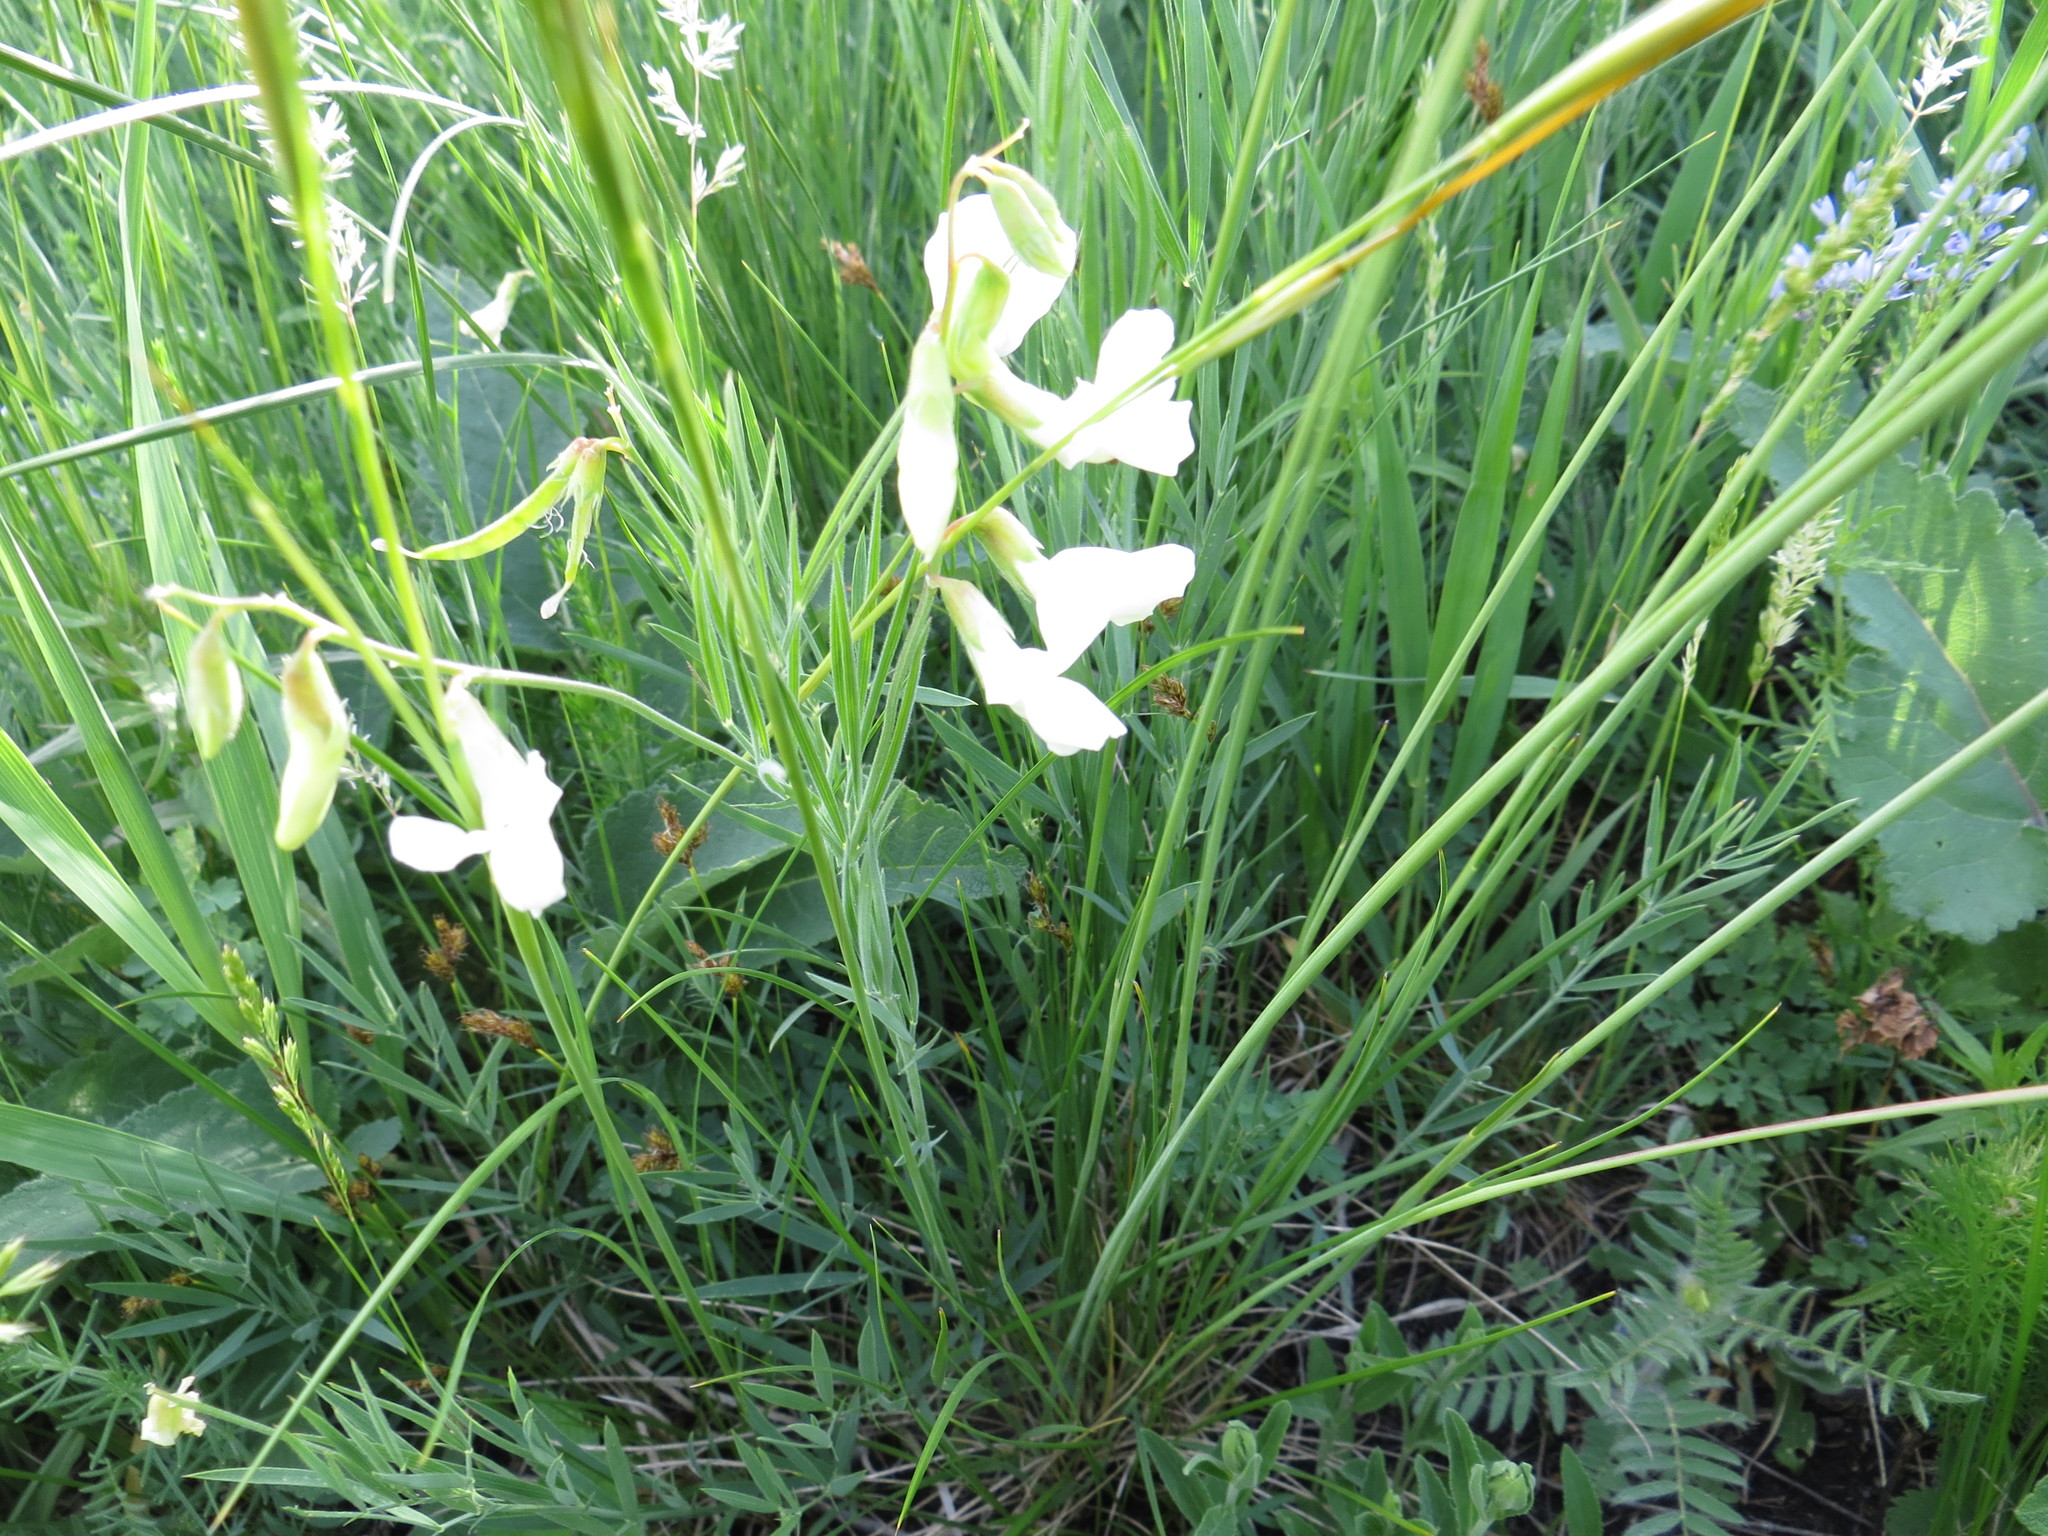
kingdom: Plantae
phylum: Tracheophyta
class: Magnoliopsida
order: Fabales
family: Fabaceae
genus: Lathyrus
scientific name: Lathyrus pallescens
